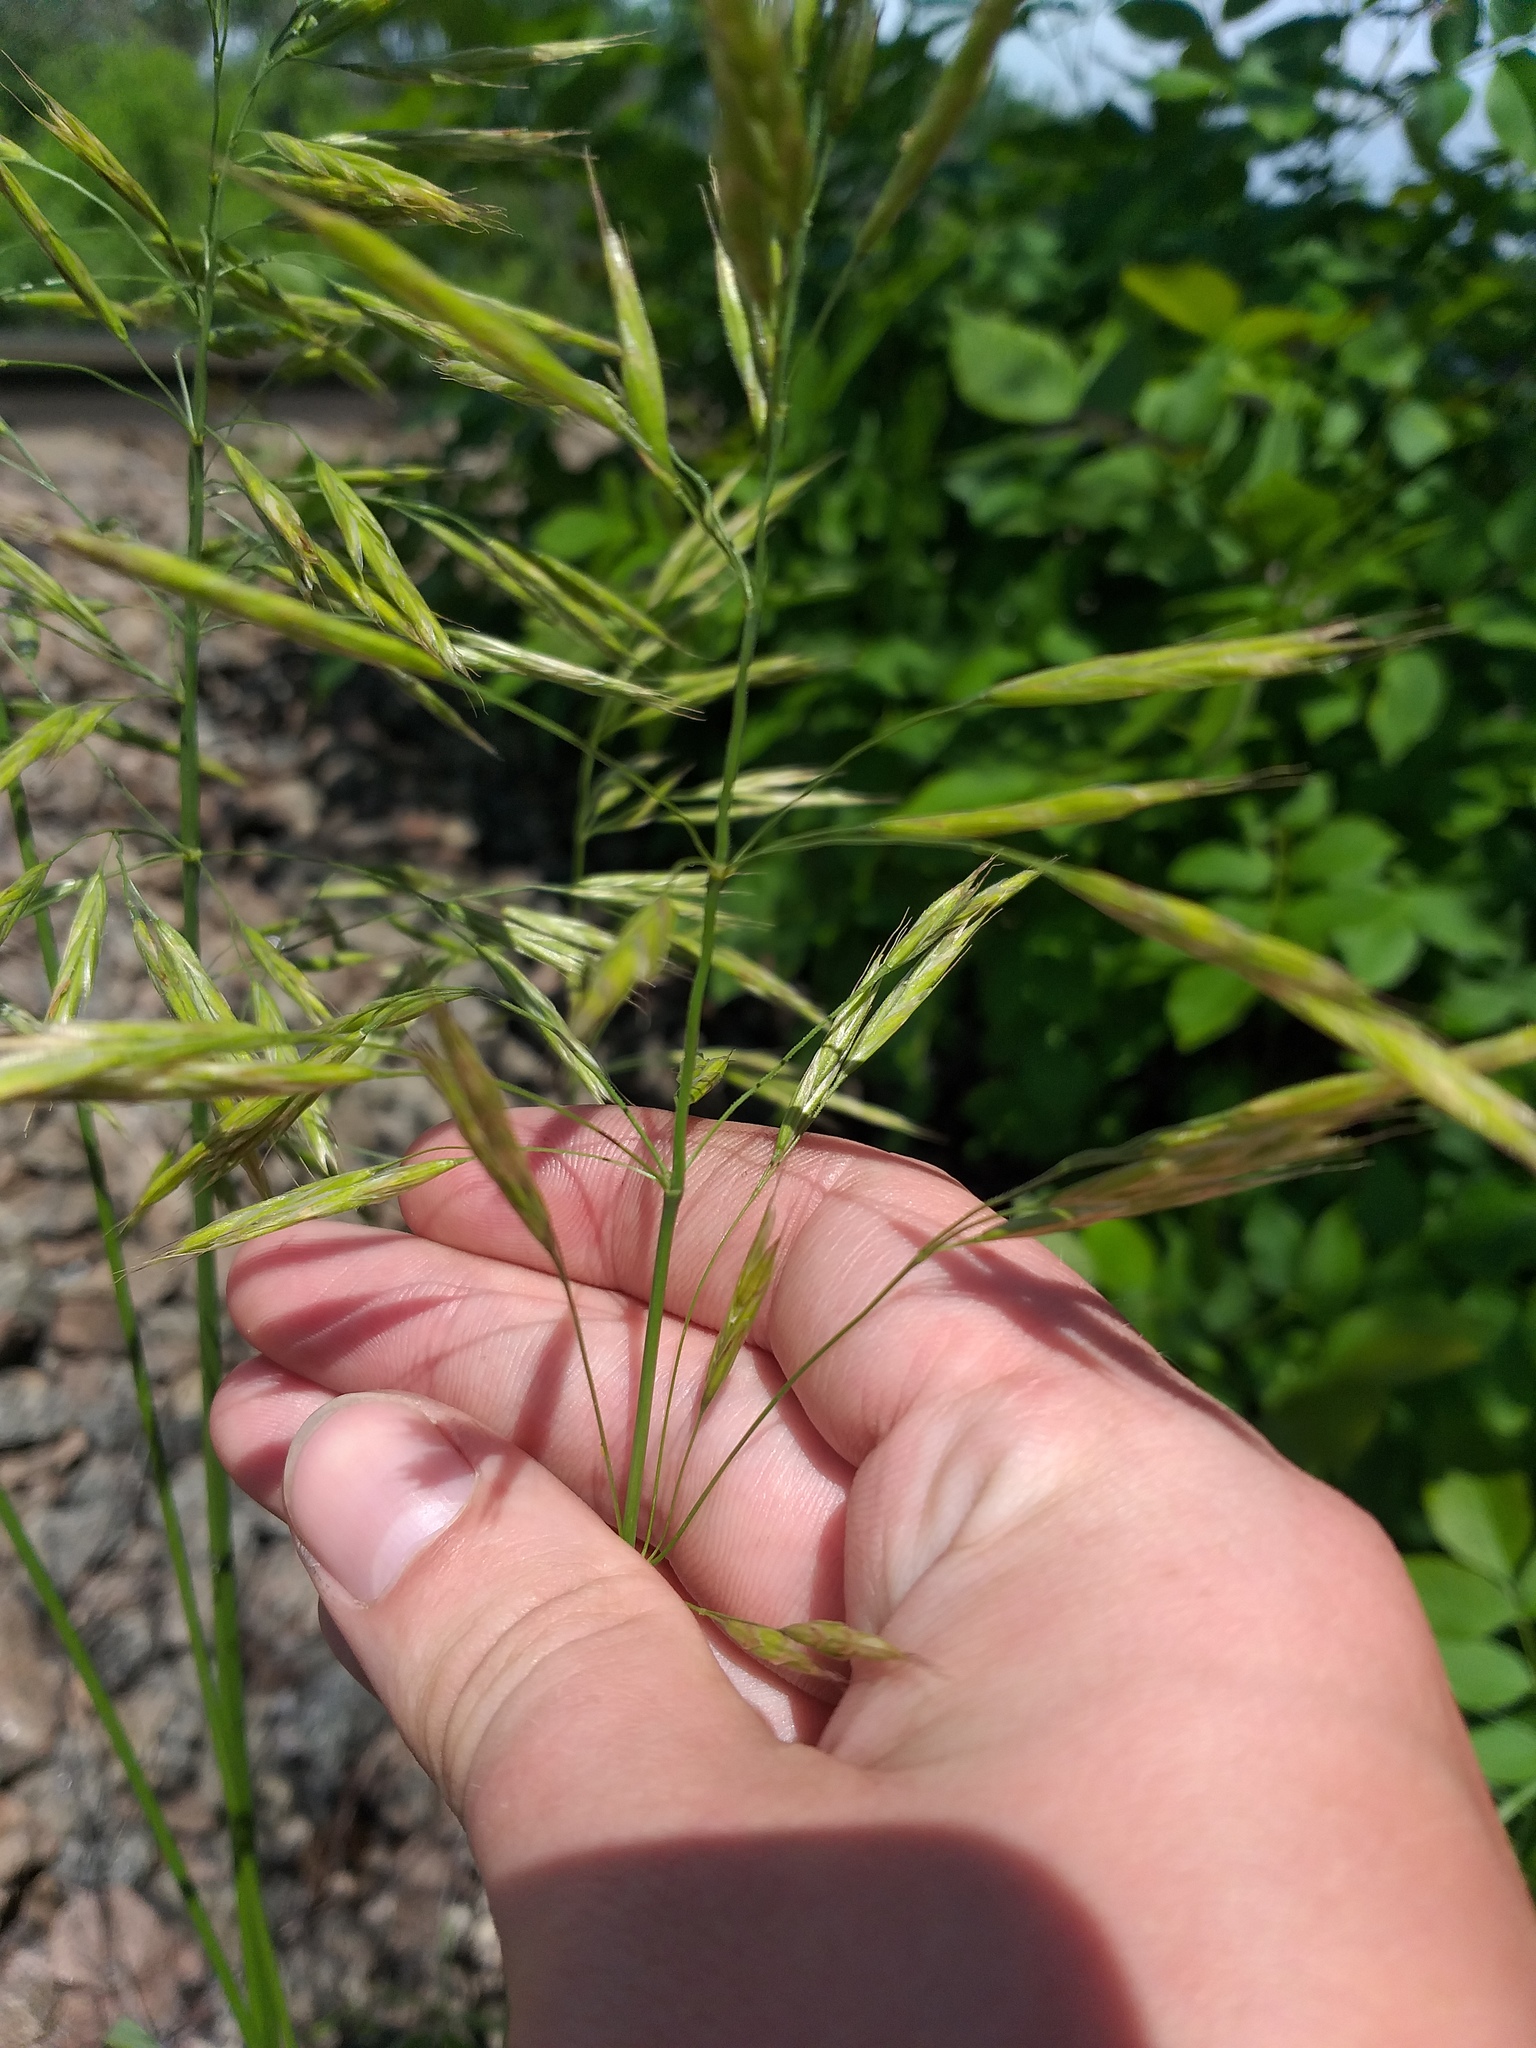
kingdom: Plantae
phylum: Tracheophyta
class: Liliopsida
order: Poales
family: Poaceae
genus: Bromus
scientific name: Bromus riparius
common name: Meadow brome
